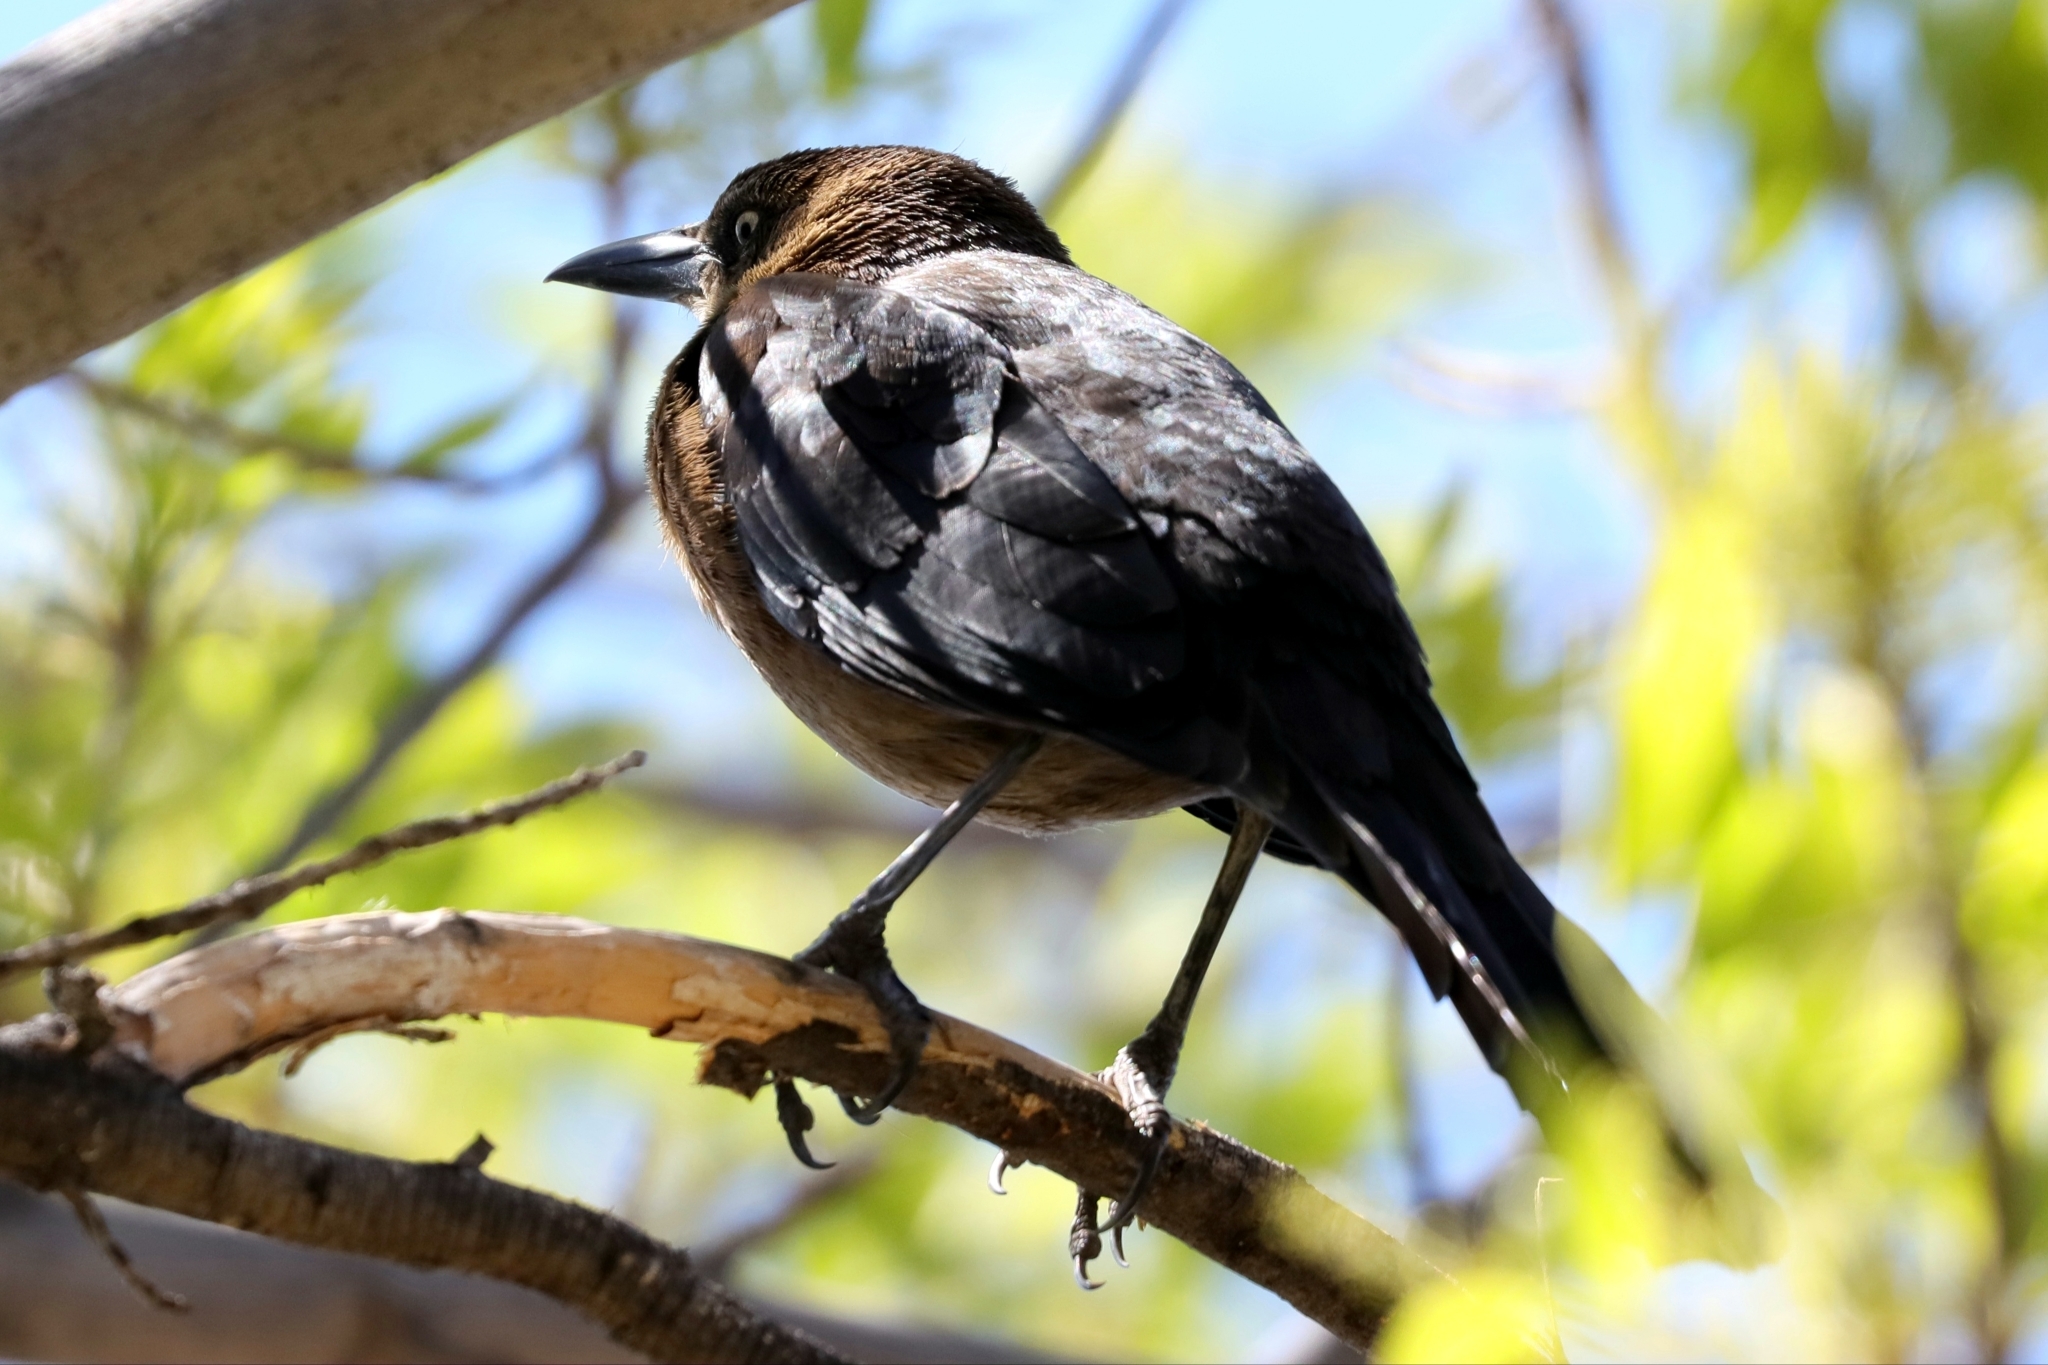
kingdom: Animalia
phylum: Chordata
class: Aves
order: Passeriformes
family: Icteridae
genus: Quiscalus
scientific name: Quiscalus mexicanus
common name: Great-tailed grackle
